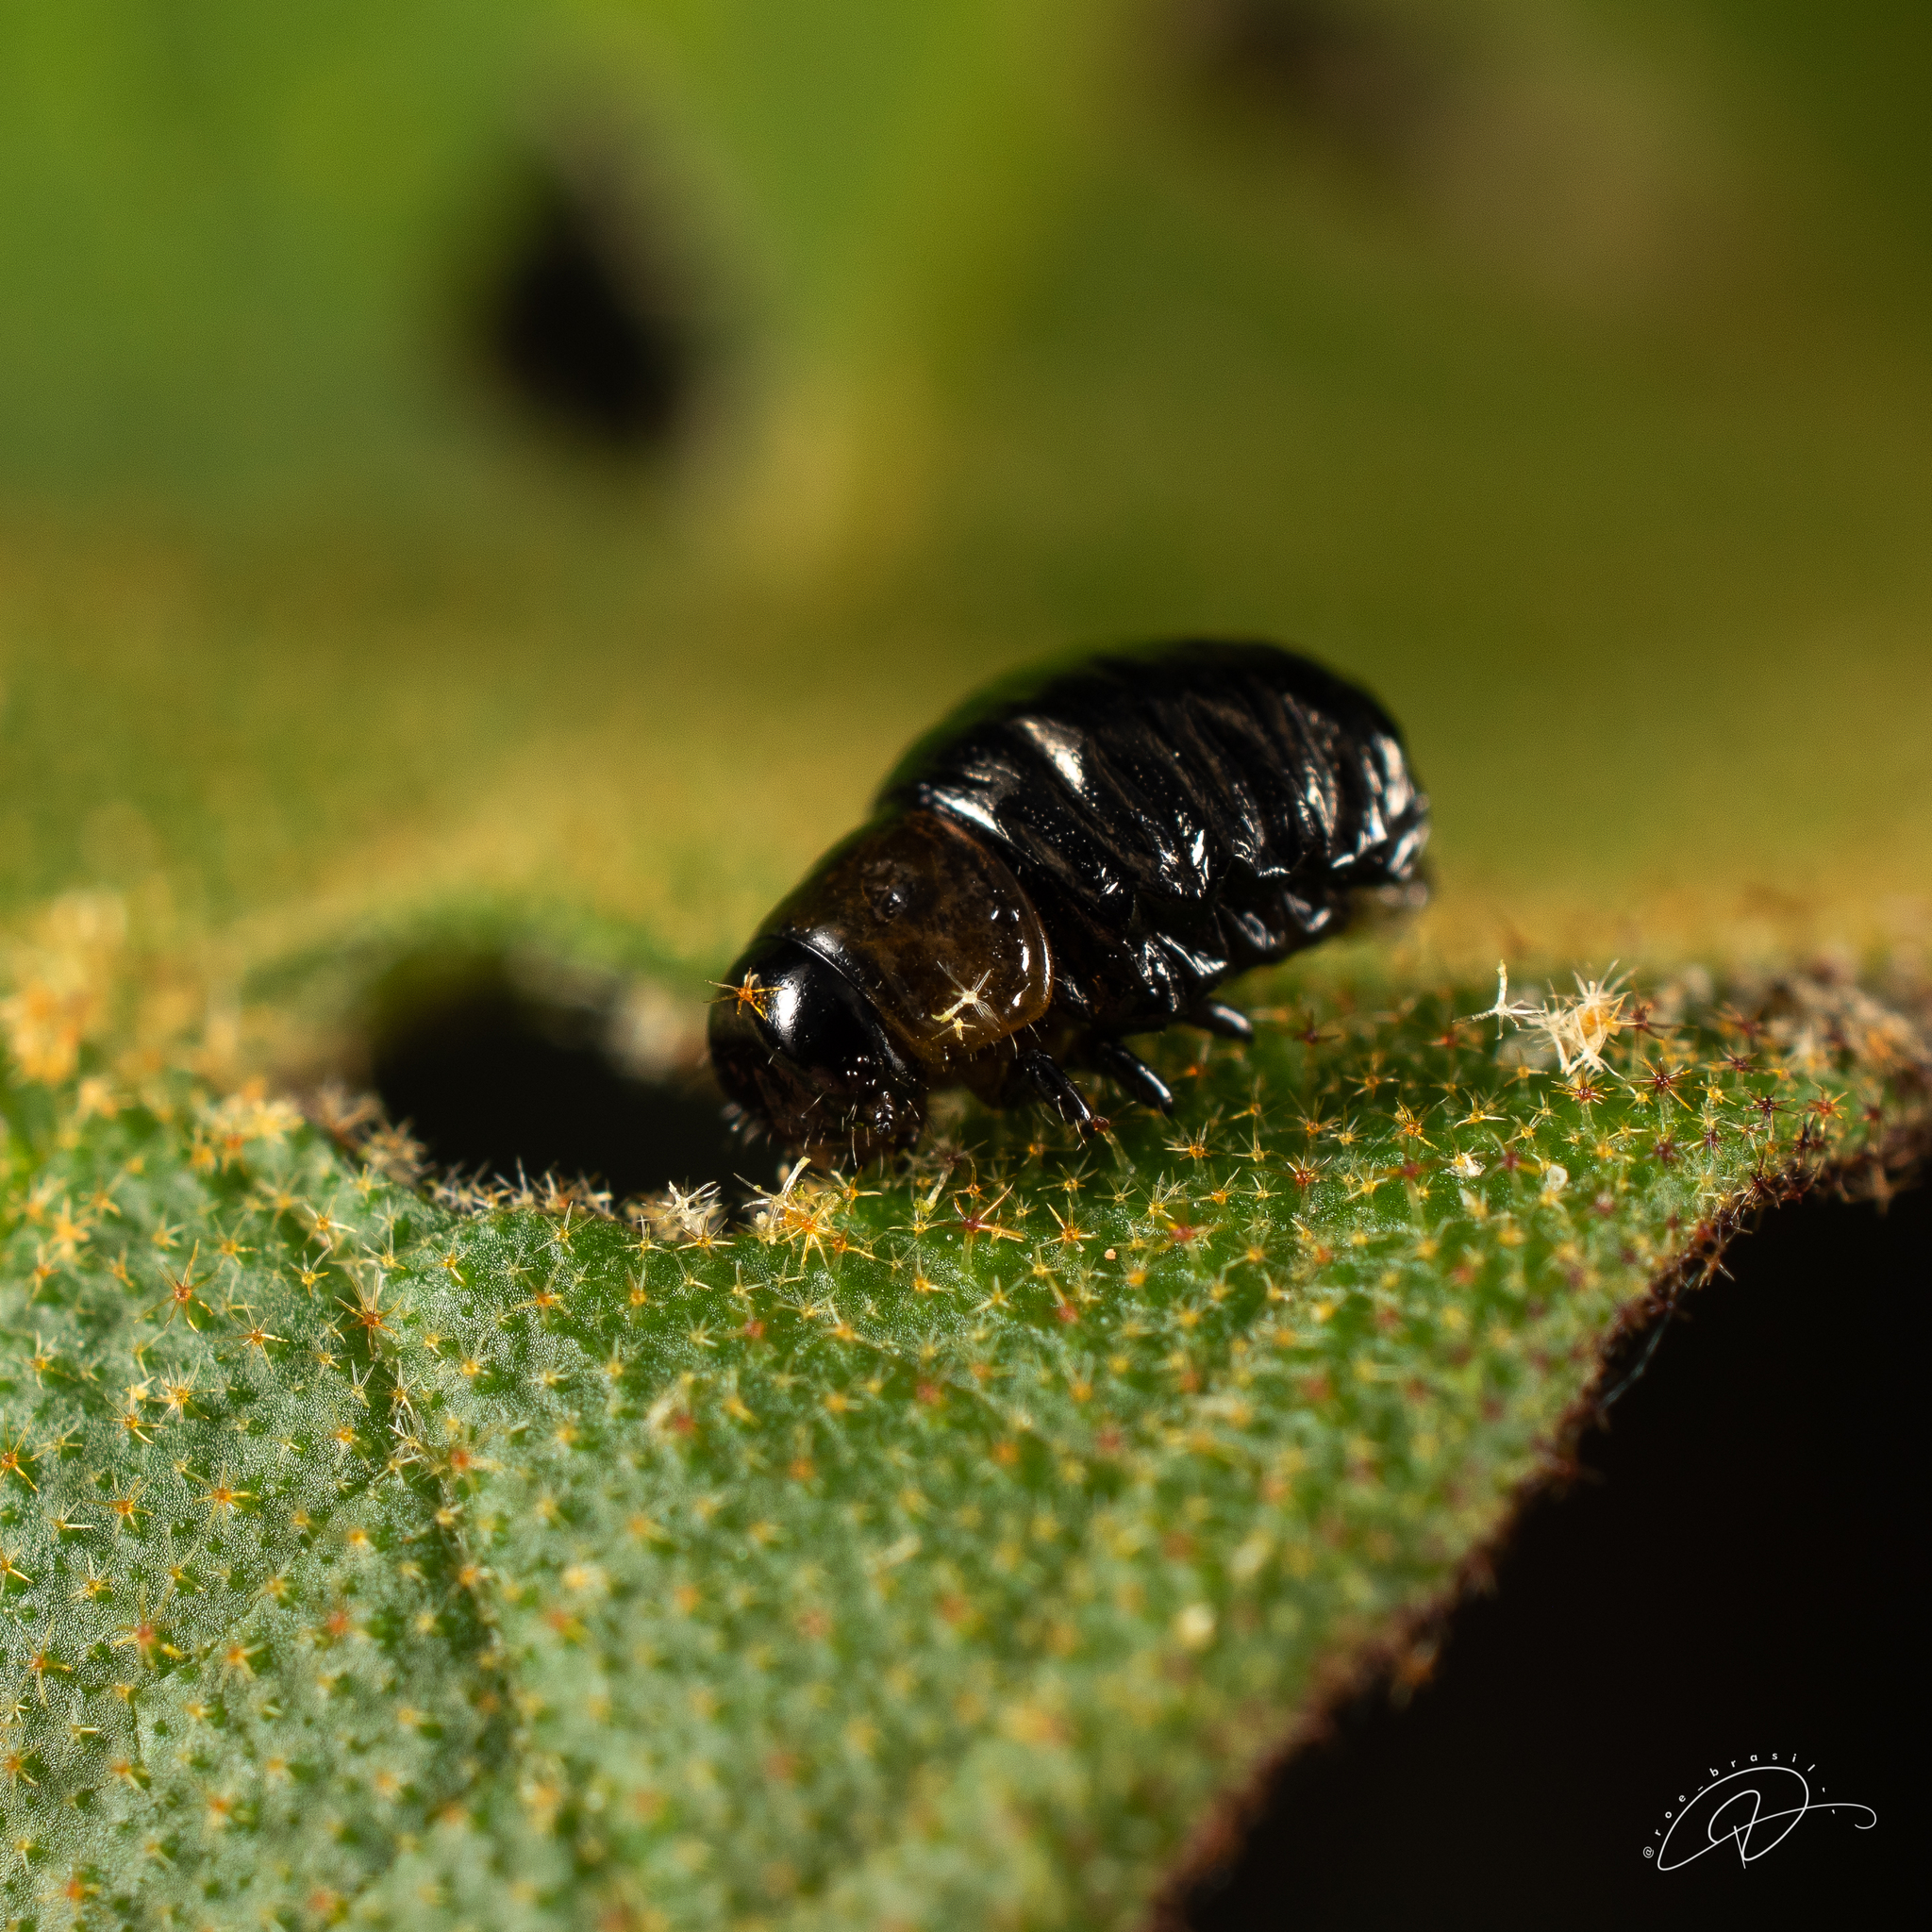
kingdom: Animalia
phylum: Arthropoda
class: Insecta
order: Coleoptera
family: Chrysomelidae
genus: Platyphora
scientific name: Platyphora
